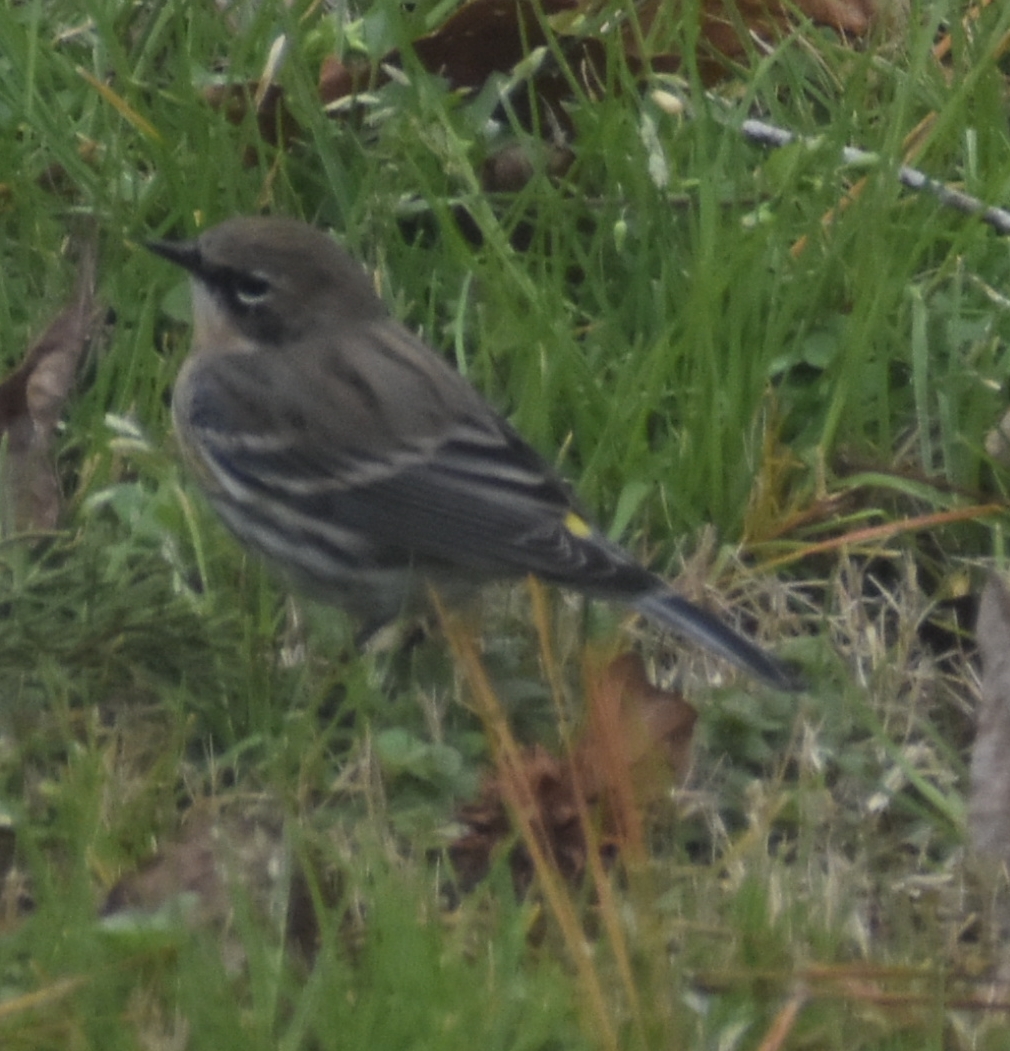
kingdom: Animalia
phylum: Chordata
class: Aves
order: Passeriformes
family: Parulidae
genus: Setophaga
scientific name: Setophaga coronata
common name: Myrtle warbler
